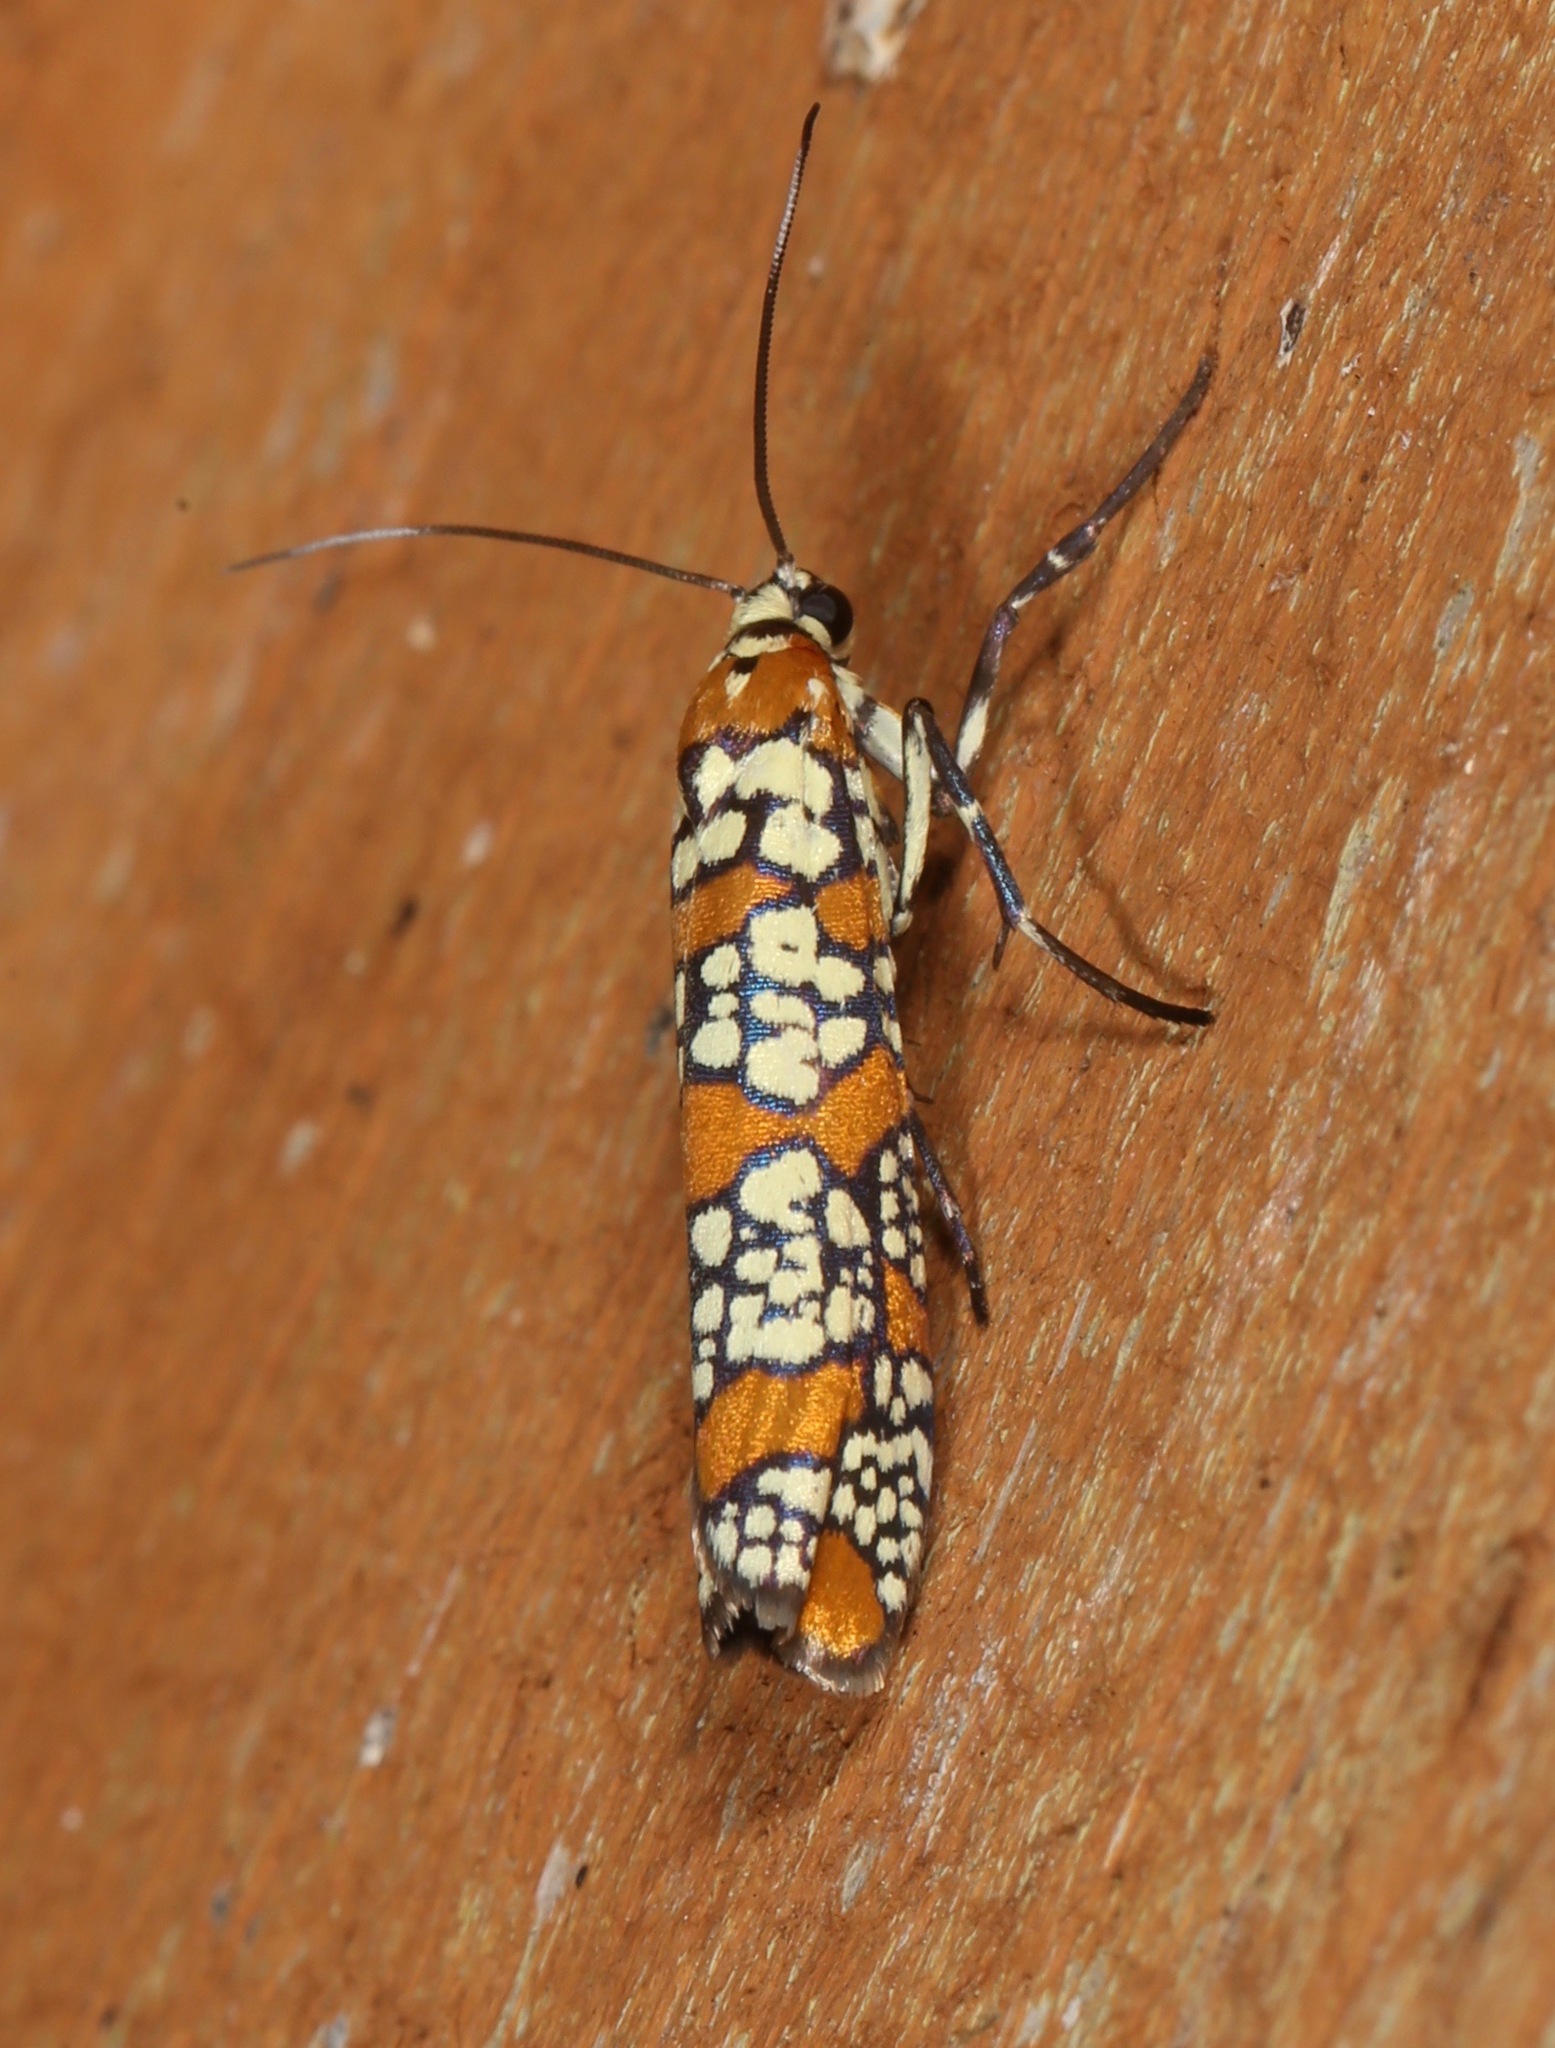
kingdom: Animalia
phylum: Arthropoda
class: Insecta
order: Lepidoptera
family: Attevidae
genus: Atteva
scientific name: Atteva punctella
